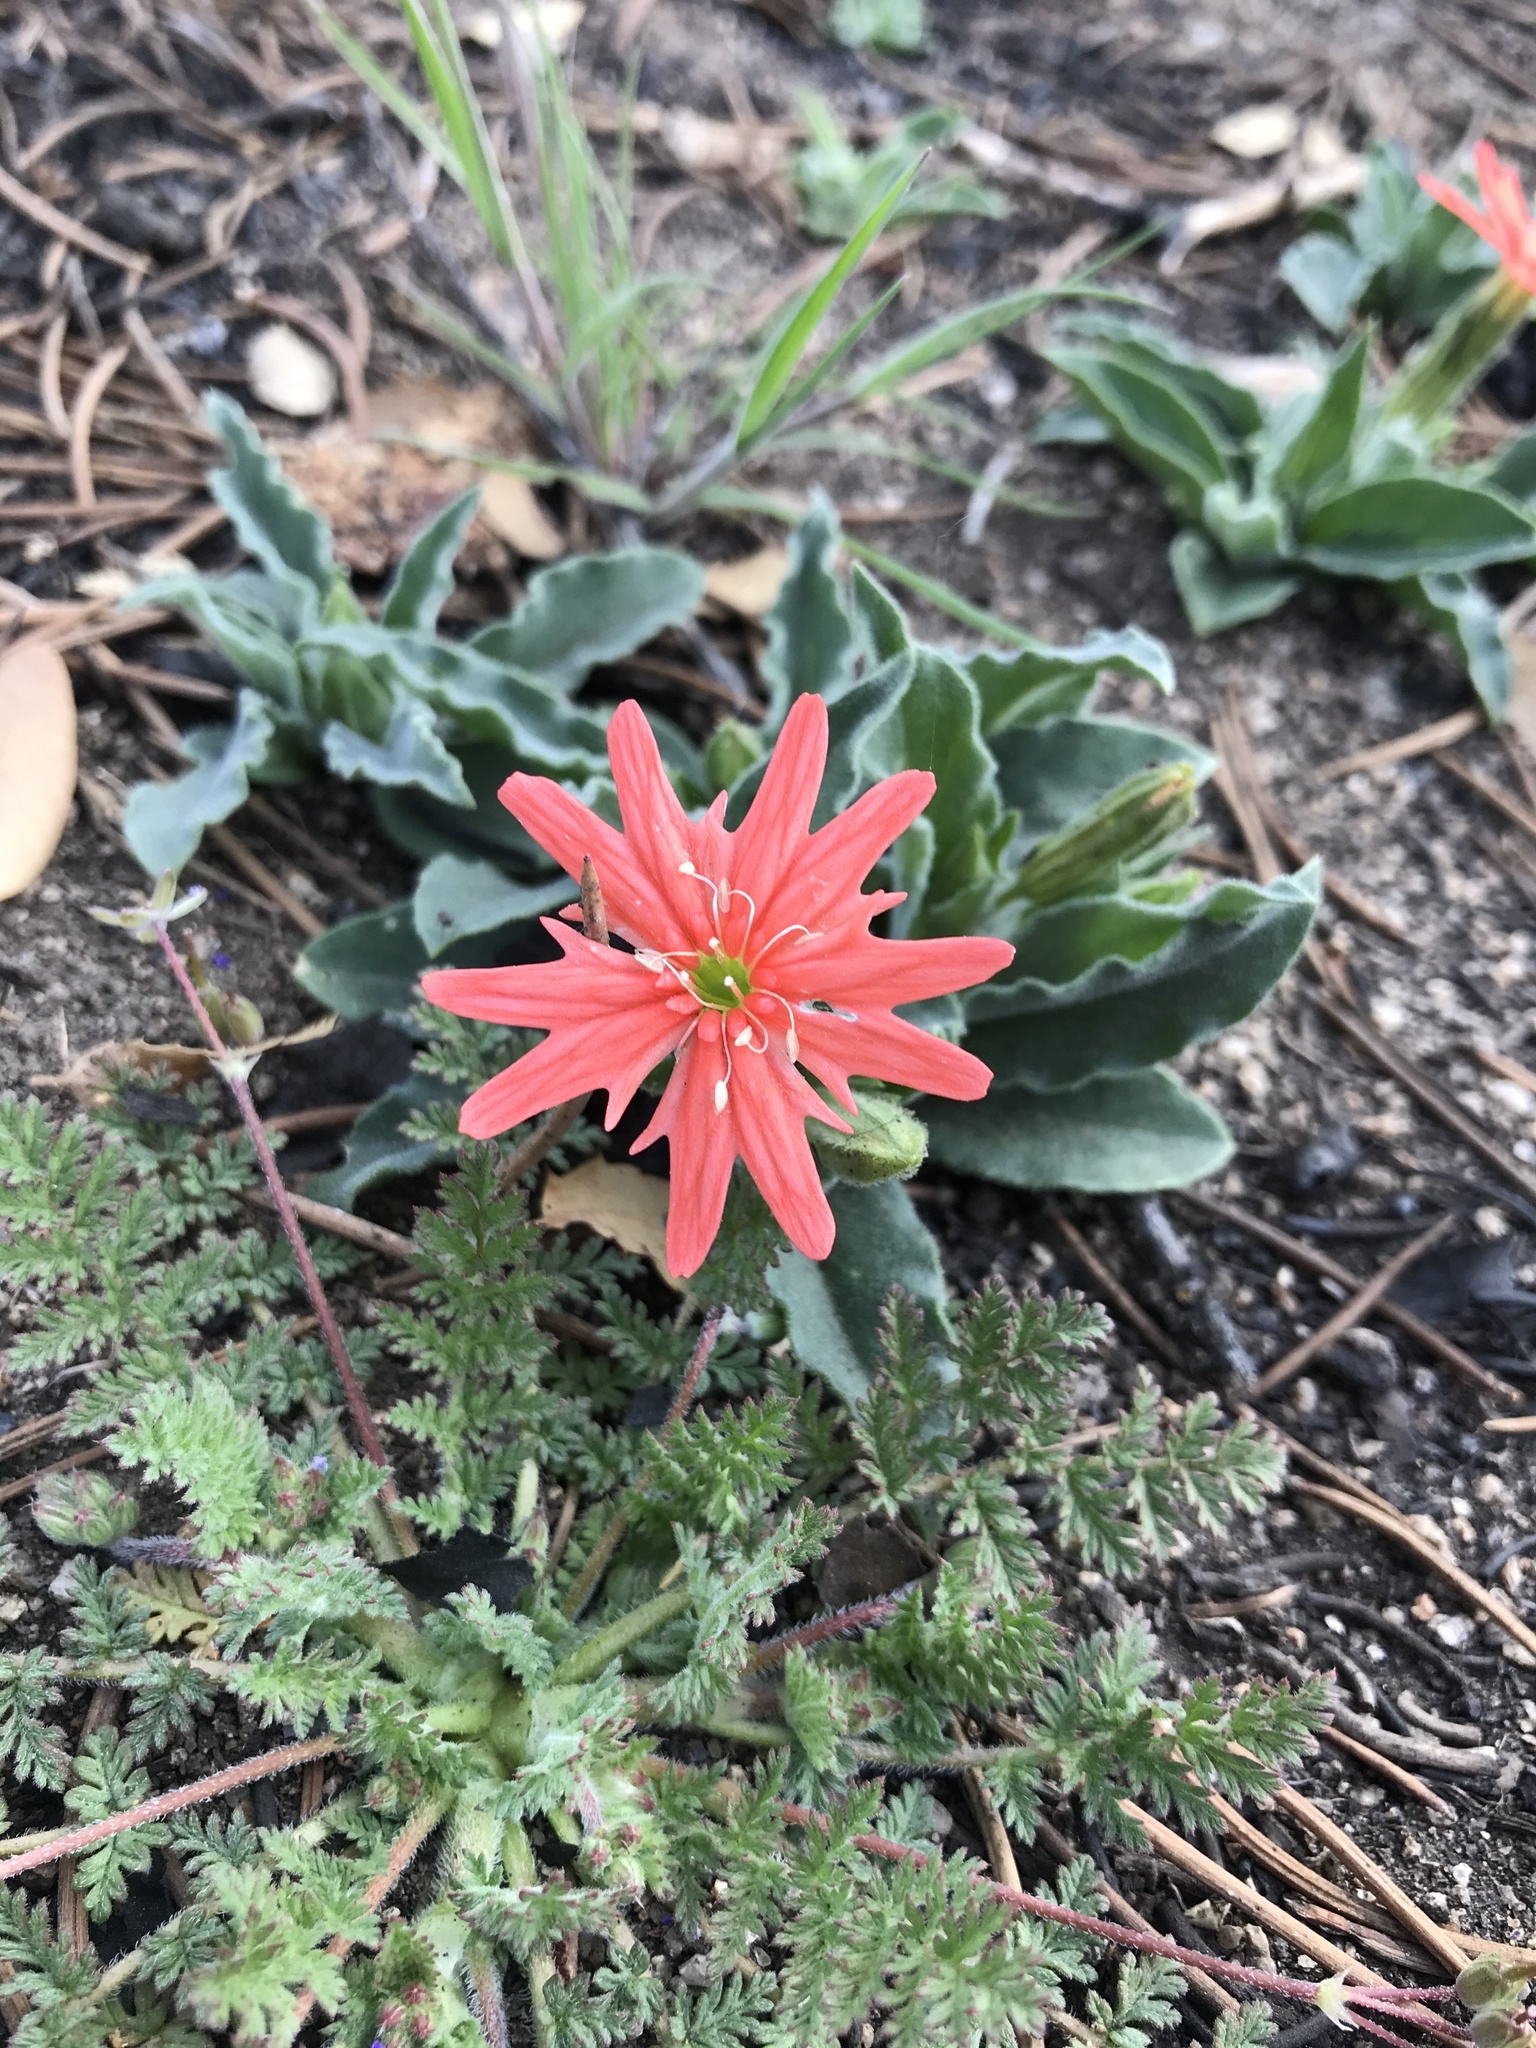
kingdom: Plantae
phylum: Tracheophyta
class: Magnoliopsida
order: Caryophyllales
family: Caryophyllaceae
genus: Silene
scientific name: Silene laciniata
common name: Indian-pink
